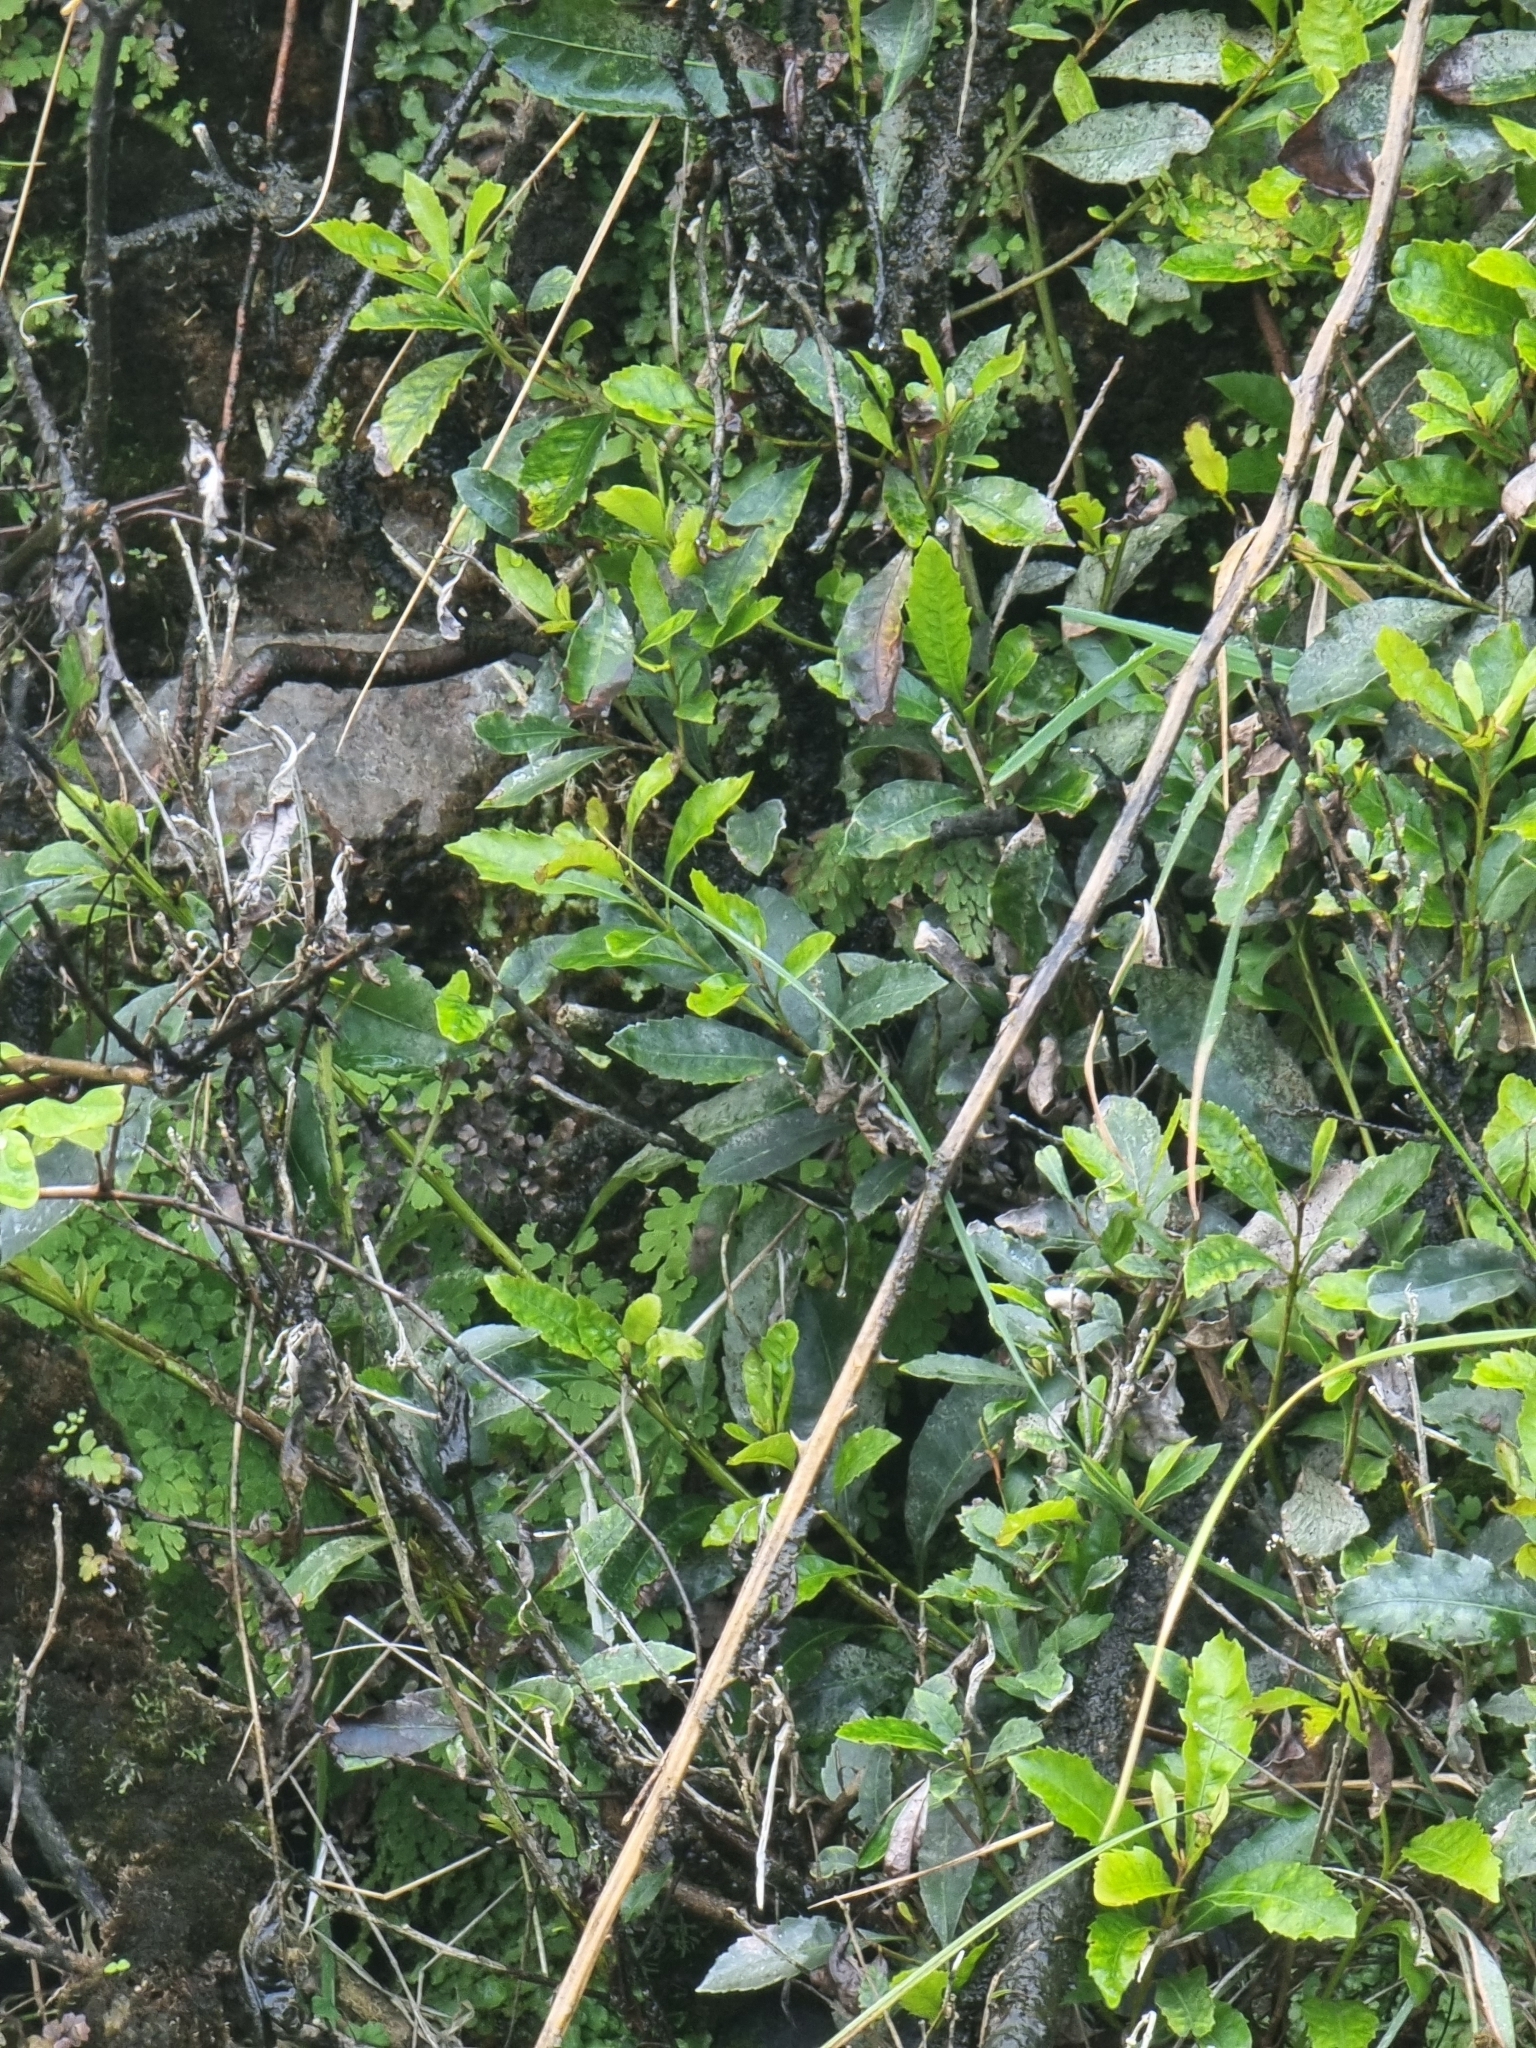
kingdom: Plantae
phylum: Tracheophyta
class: Magnoliopsida
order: Fagales
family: Myricaceae
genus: Morella
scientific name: Morella faya
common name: Firetree
